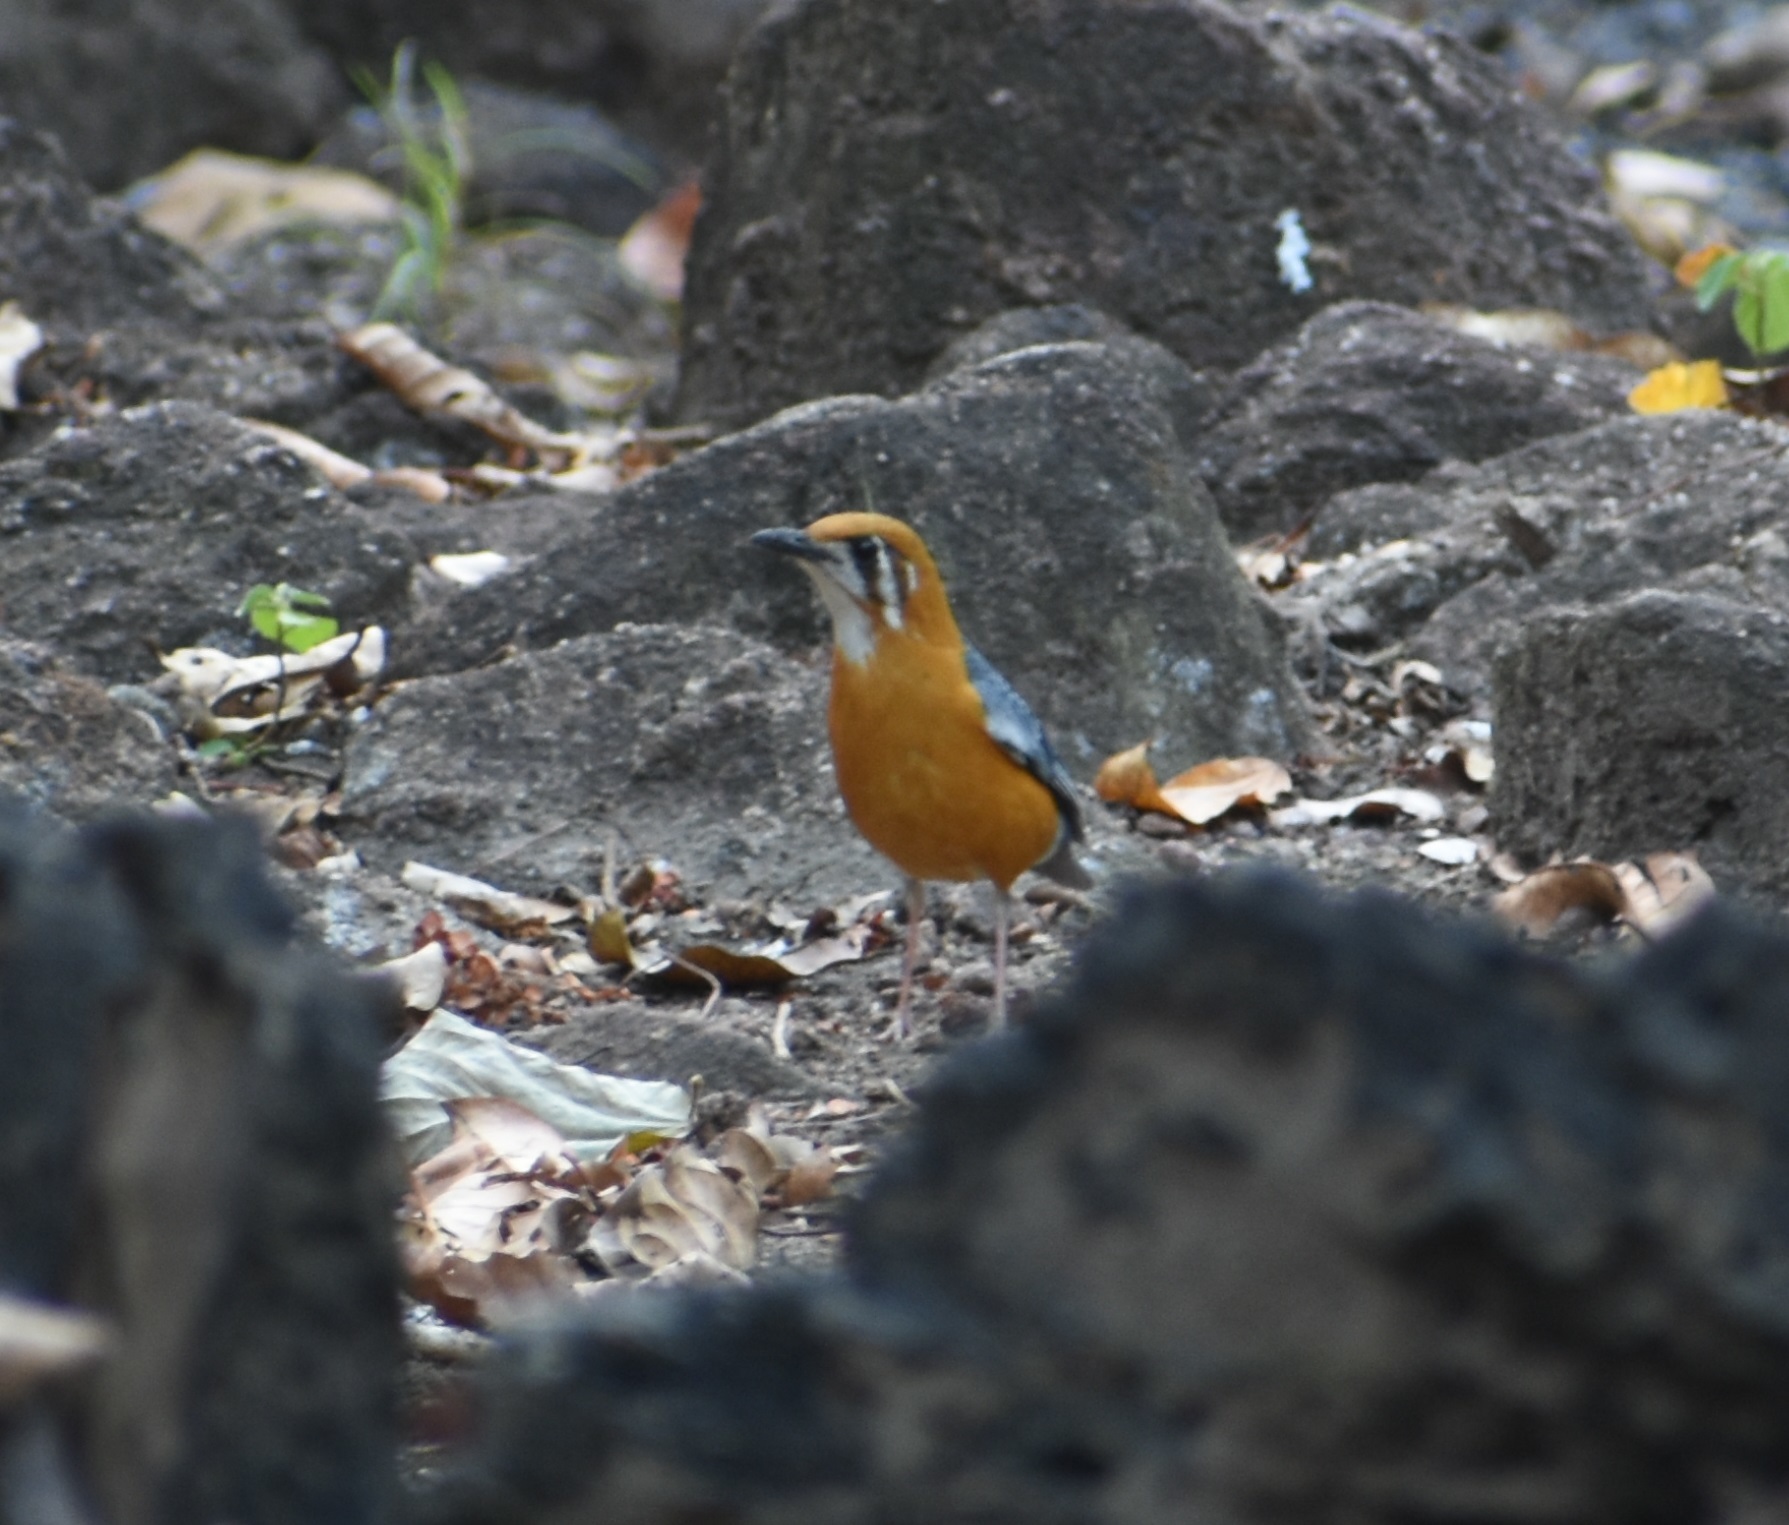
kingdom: Animalia
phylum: Chordata
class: Aves
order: Passeriformes
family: Turdidae
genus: Geokichla
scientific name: Geokichla citrina
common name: Orange-headed thrush
